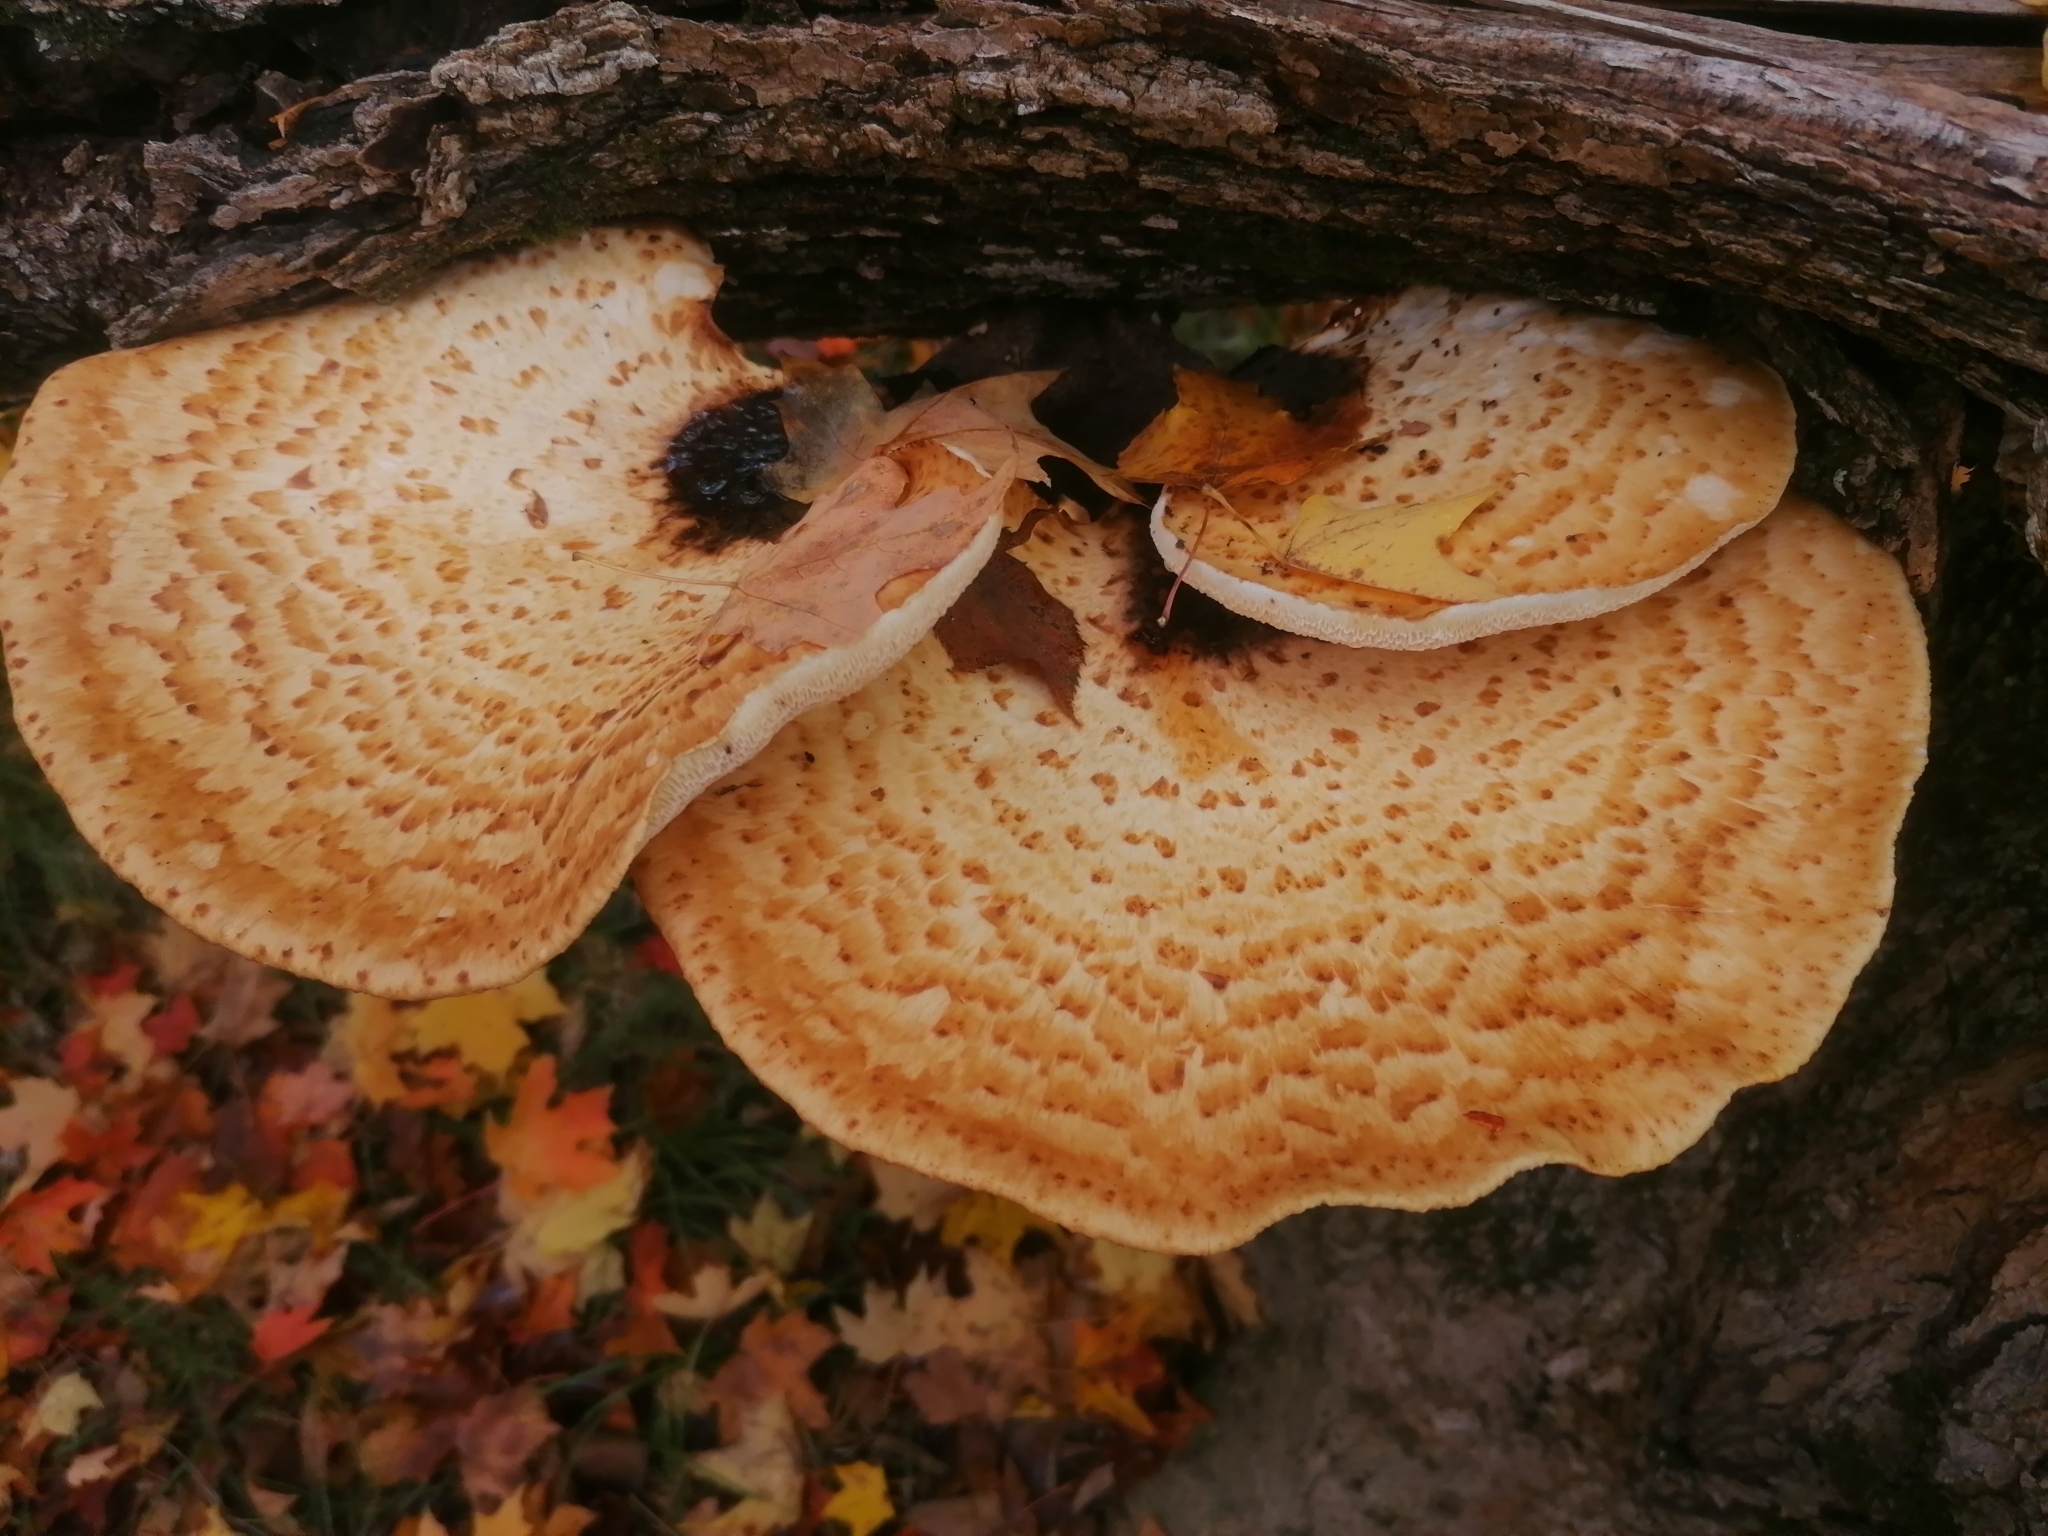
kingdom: Fungi
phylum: Basidiomycota
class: Agaricomycetes
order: Polyporales
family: Polyporaceae
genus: Cerioporus
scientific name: Cerioporus squamosus
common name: Dryad's saddle
